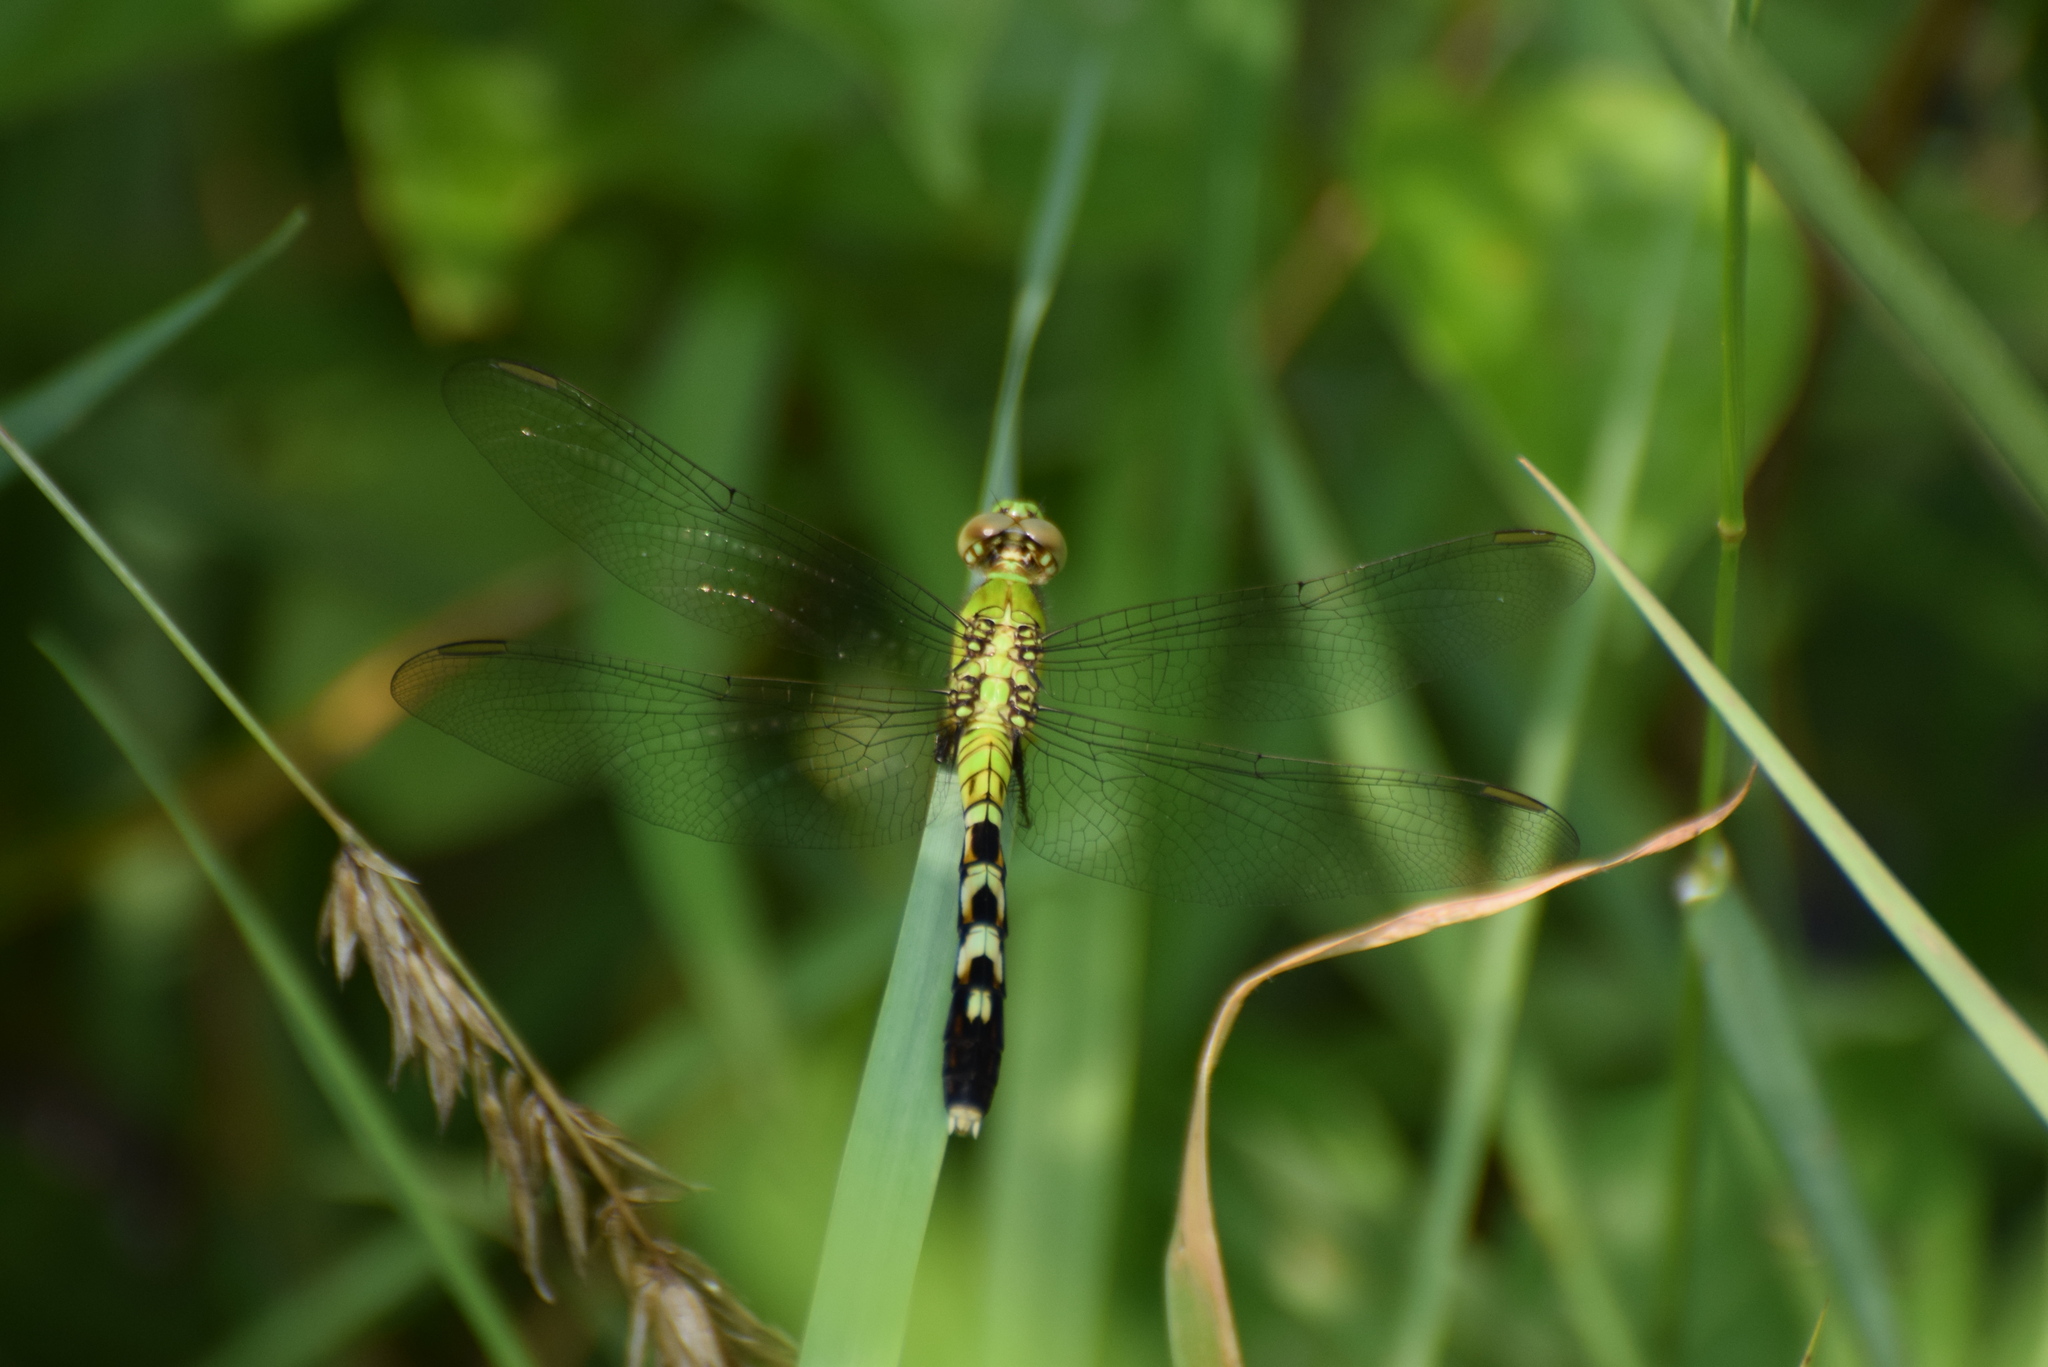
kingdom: Animalia
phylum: Arthropoda
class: Insecta
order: Odonata
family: Libellulidae
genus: Erythemis
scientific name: Erythemis simplicicollis
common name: Eastern pondhawk
